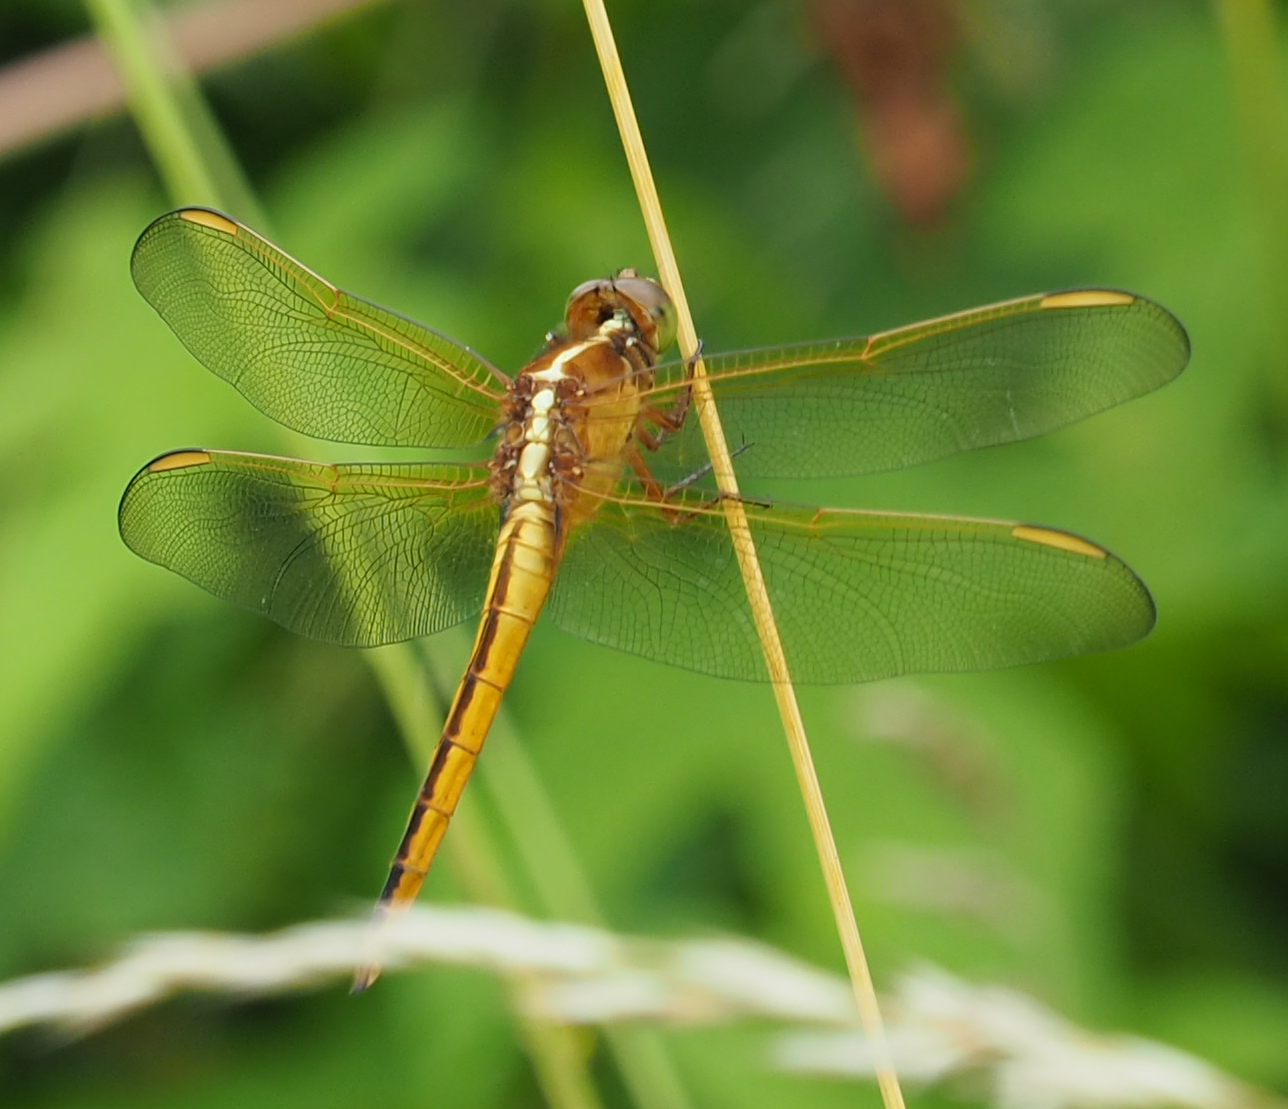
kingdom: Animalia
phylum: Arthropoda
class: Insecta
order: Odonata
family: Libellulidae
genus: Libellula
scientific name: Libellula needhami
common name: Needham's skimmer
